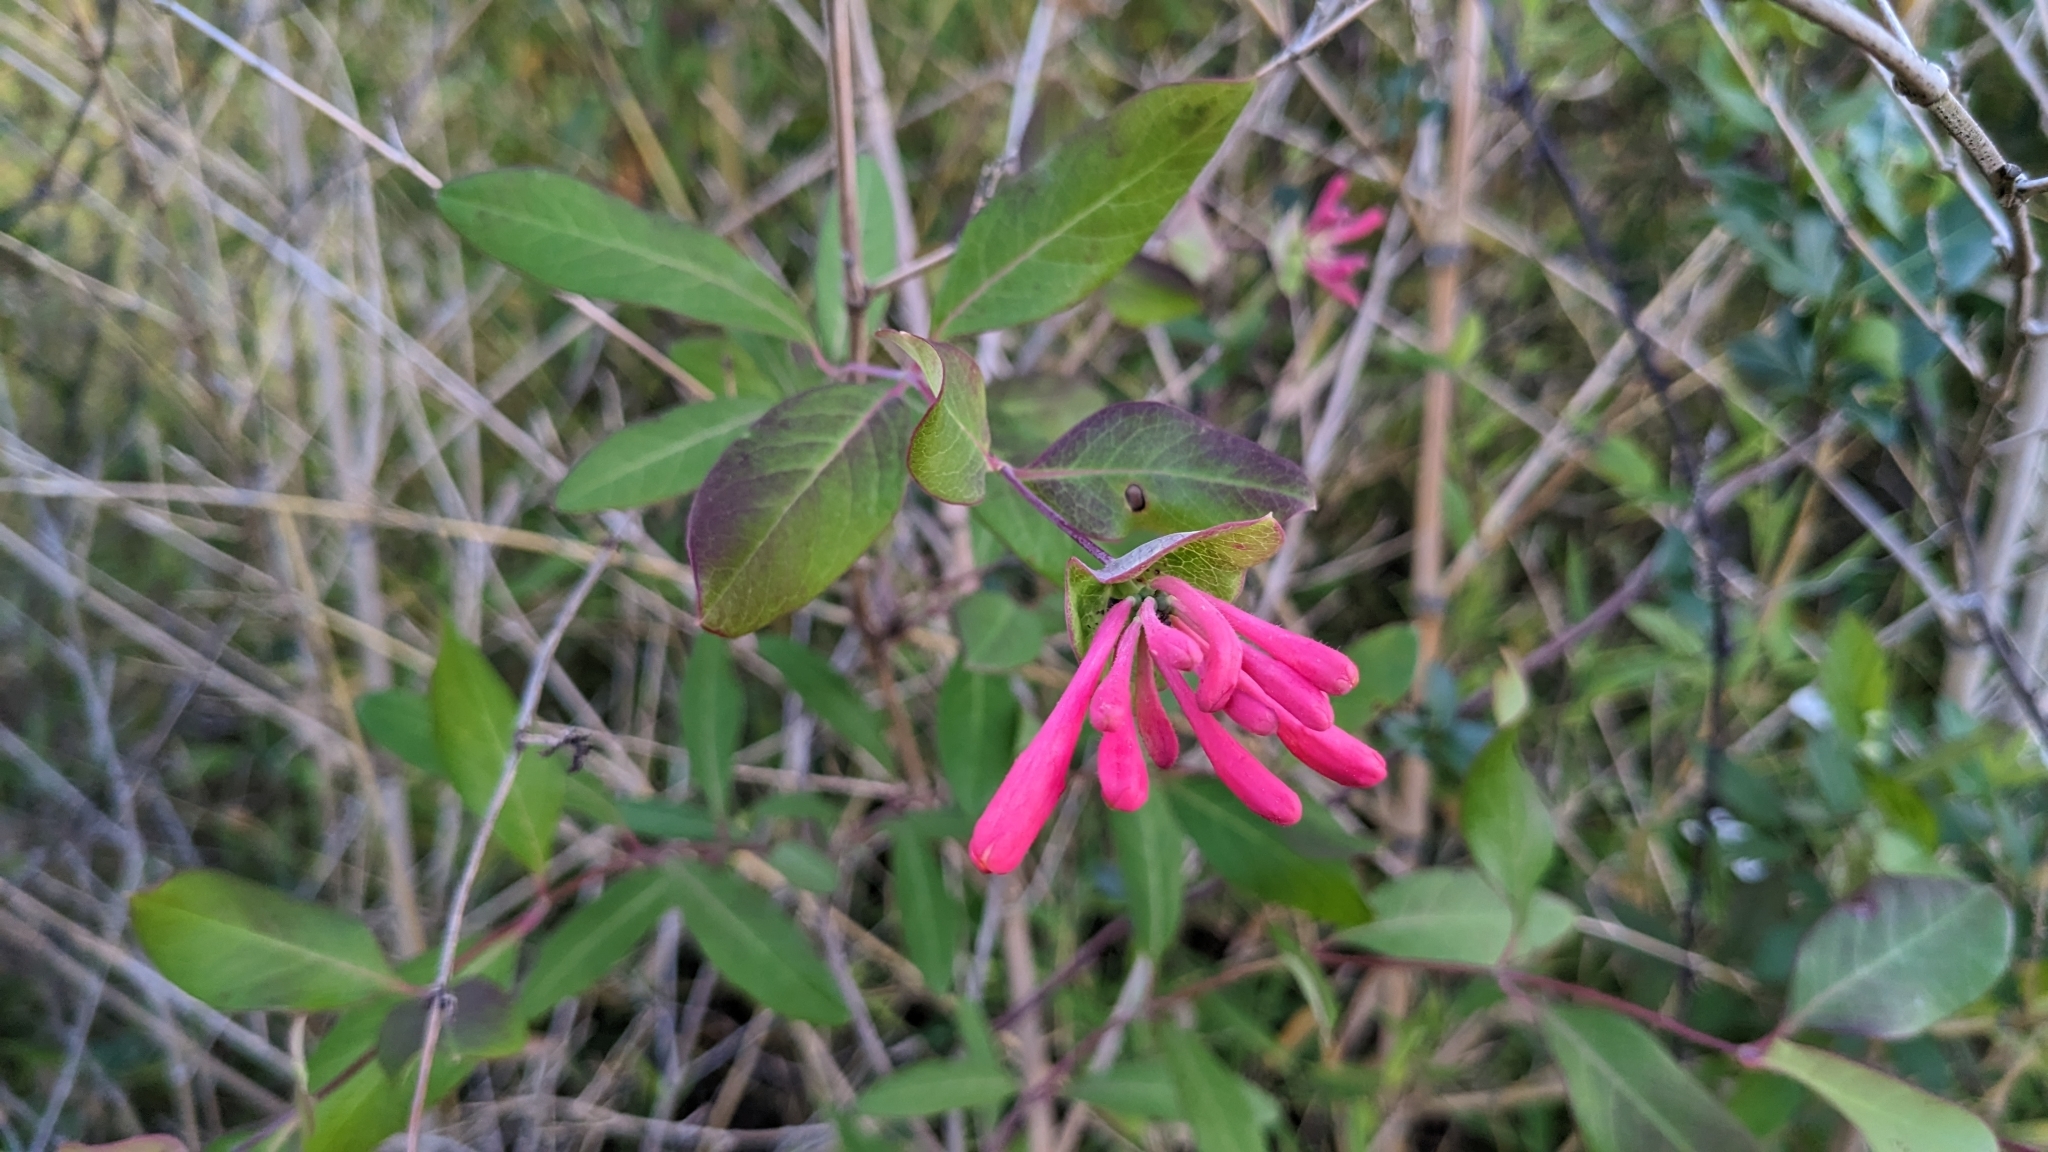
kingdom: Plantae
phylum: Tracheophyta
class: Magnoliopsida
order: Dipsacales
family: Caprifoliaceae
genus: Lonicera
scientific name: Lonicera sempervirens
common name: Coral honeysuckle
